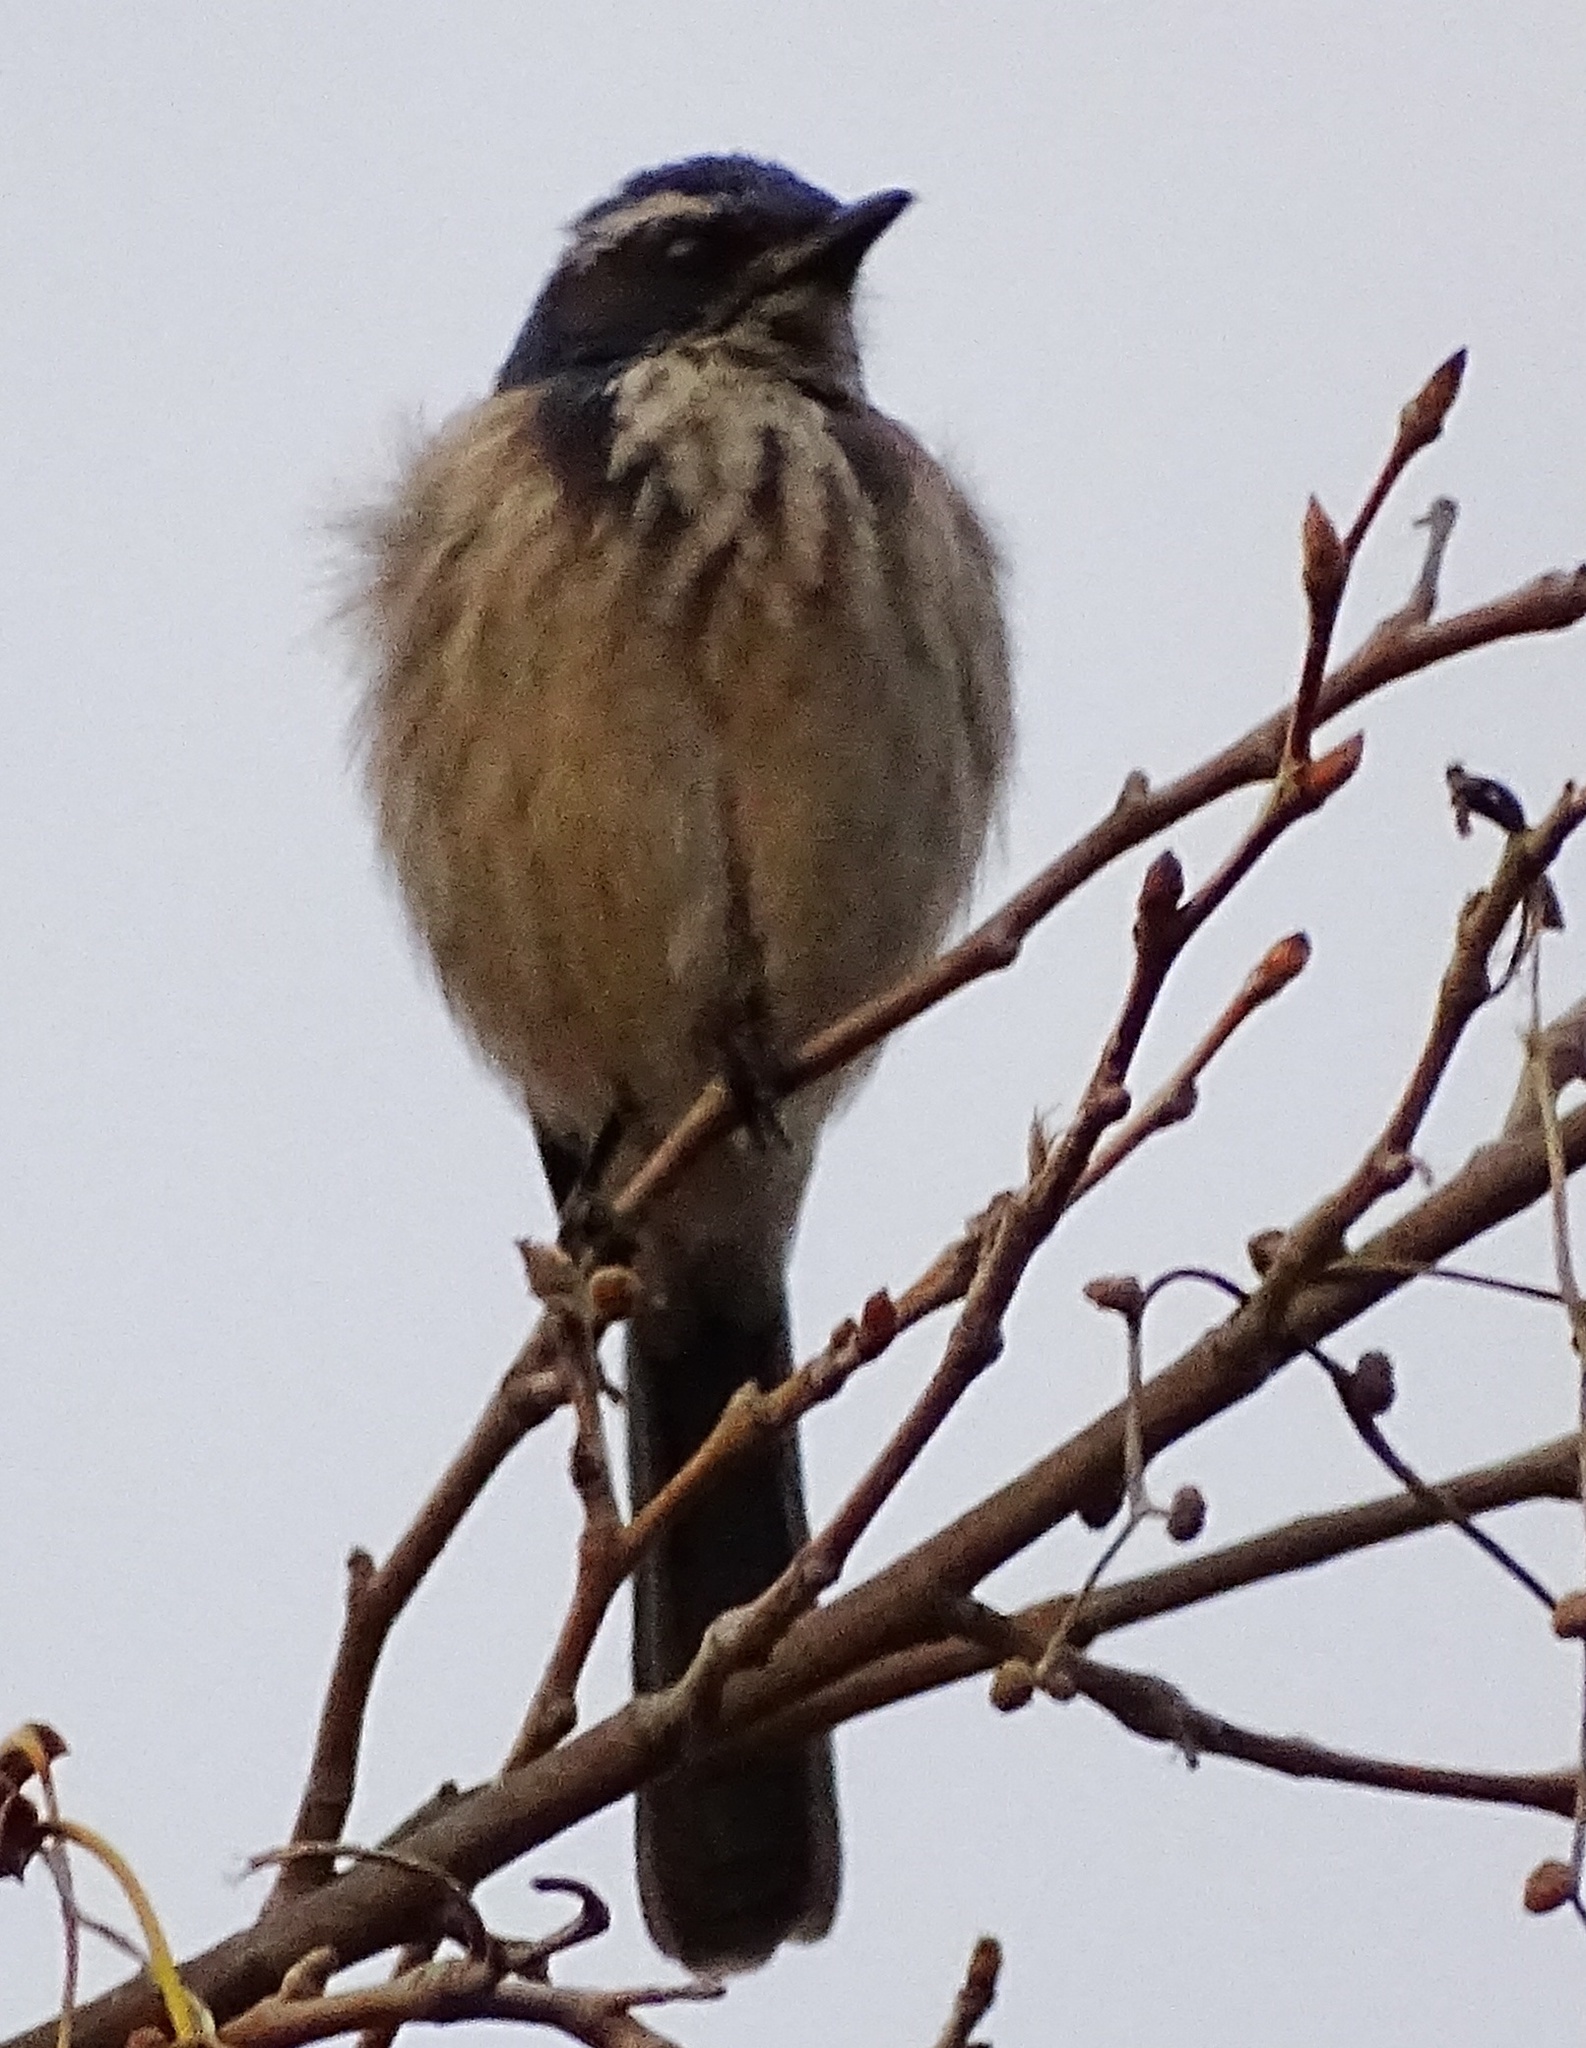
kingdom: Animalia
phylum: Chordata
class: Aves
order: Passeriformes
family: Corvidae
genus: Aphelocoma
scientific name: Aphelocoma californica
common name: California scrub-jay
